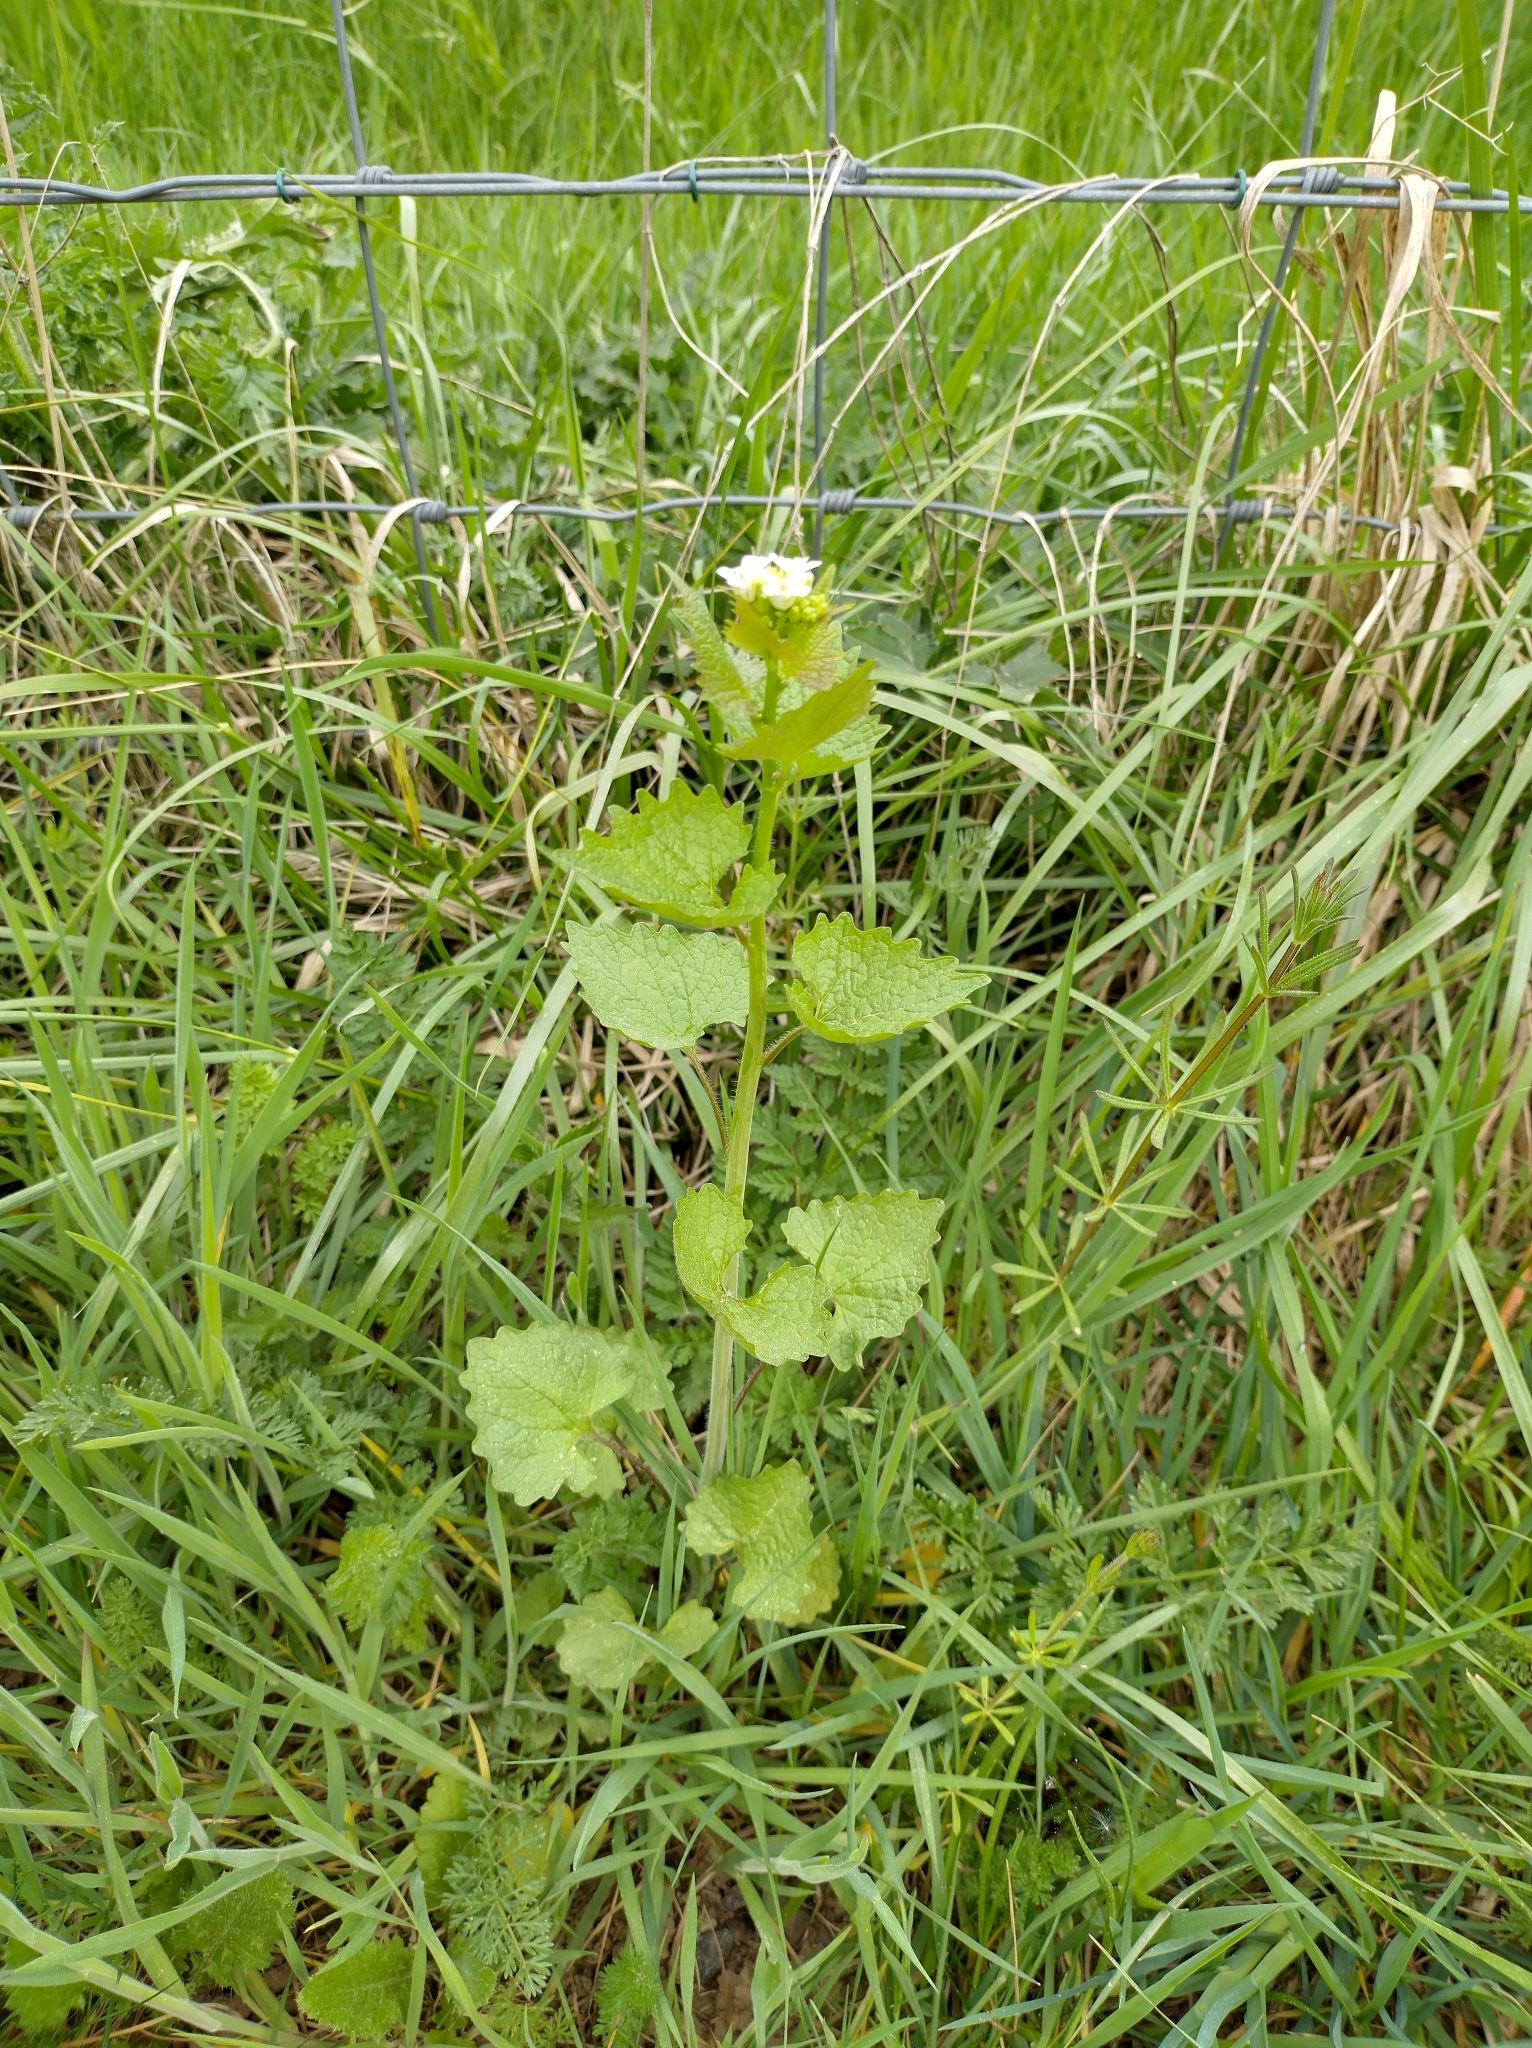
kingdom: Plantae
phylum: Tracheophyta
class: Magnoliopsida
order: Brassicales
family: Brassicaceae
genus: Alliaria
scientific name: Alliaria petiolata
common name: Garlic mustard
